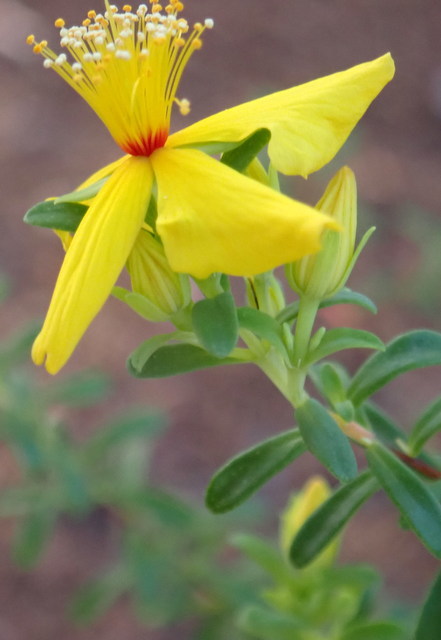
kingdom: Plantae
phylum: Tracheophyta
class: Magnoliopsida
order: Malpighiales
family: Hypericaceae
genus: Hypericum
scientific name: Hypericum microsepalum
